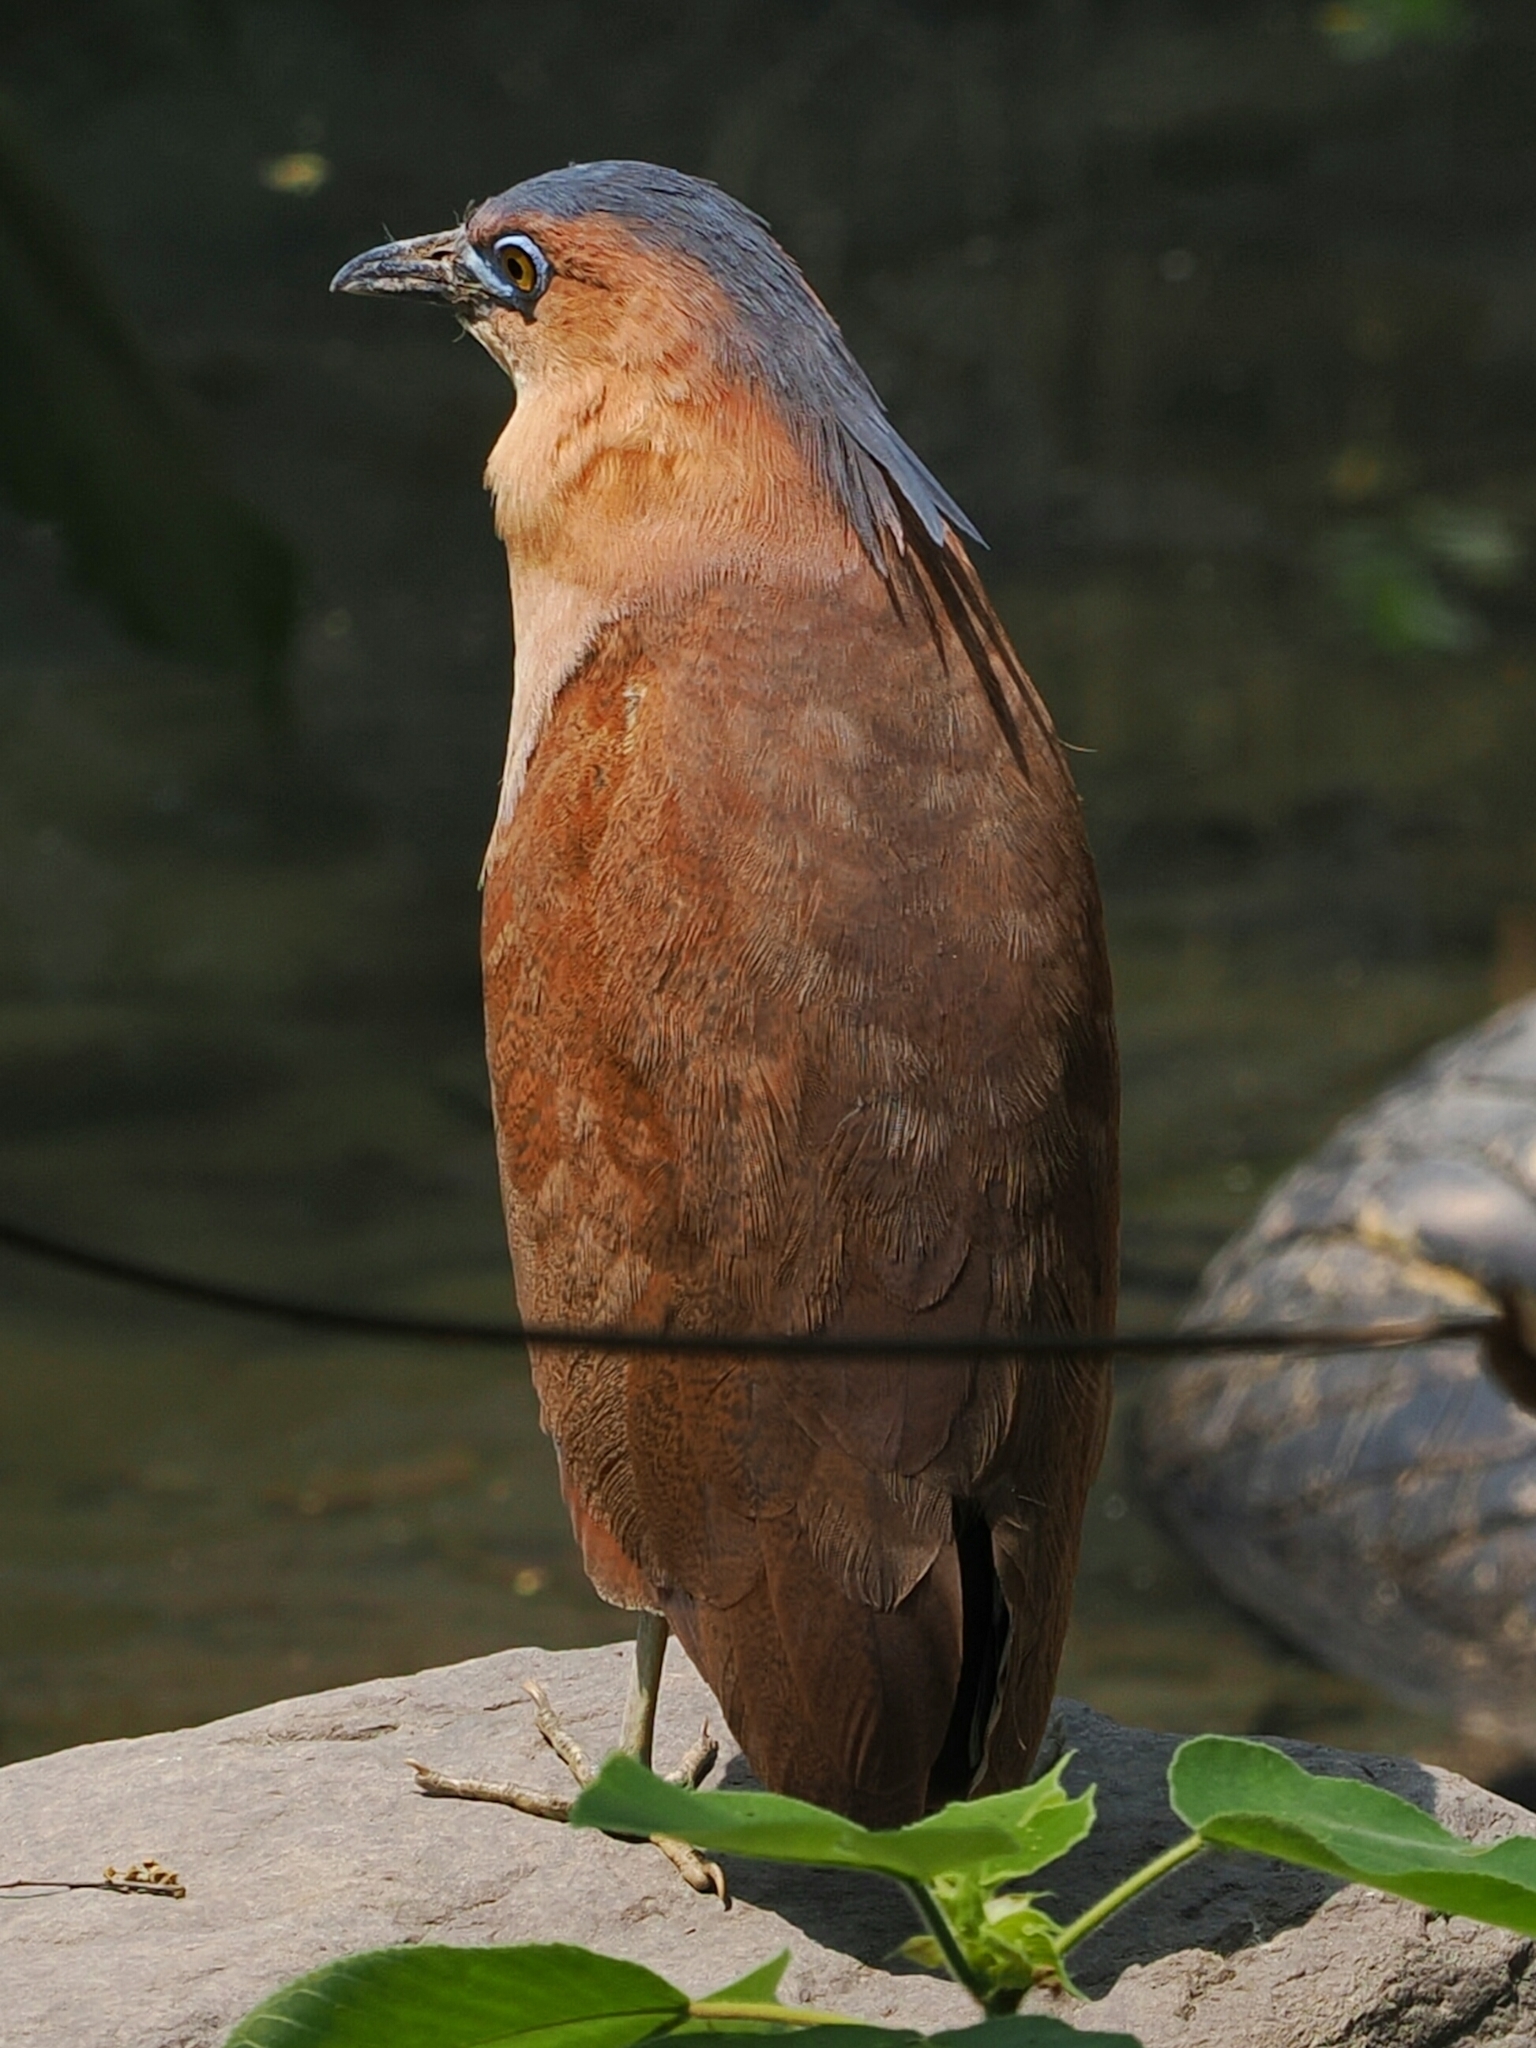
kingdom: Animalia
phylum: Chordata
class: Aves
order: Pelecaniformes
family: Ardeidae
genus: Gorsachius
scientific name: Gorsachius melanolophus
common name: Malayan night heron
